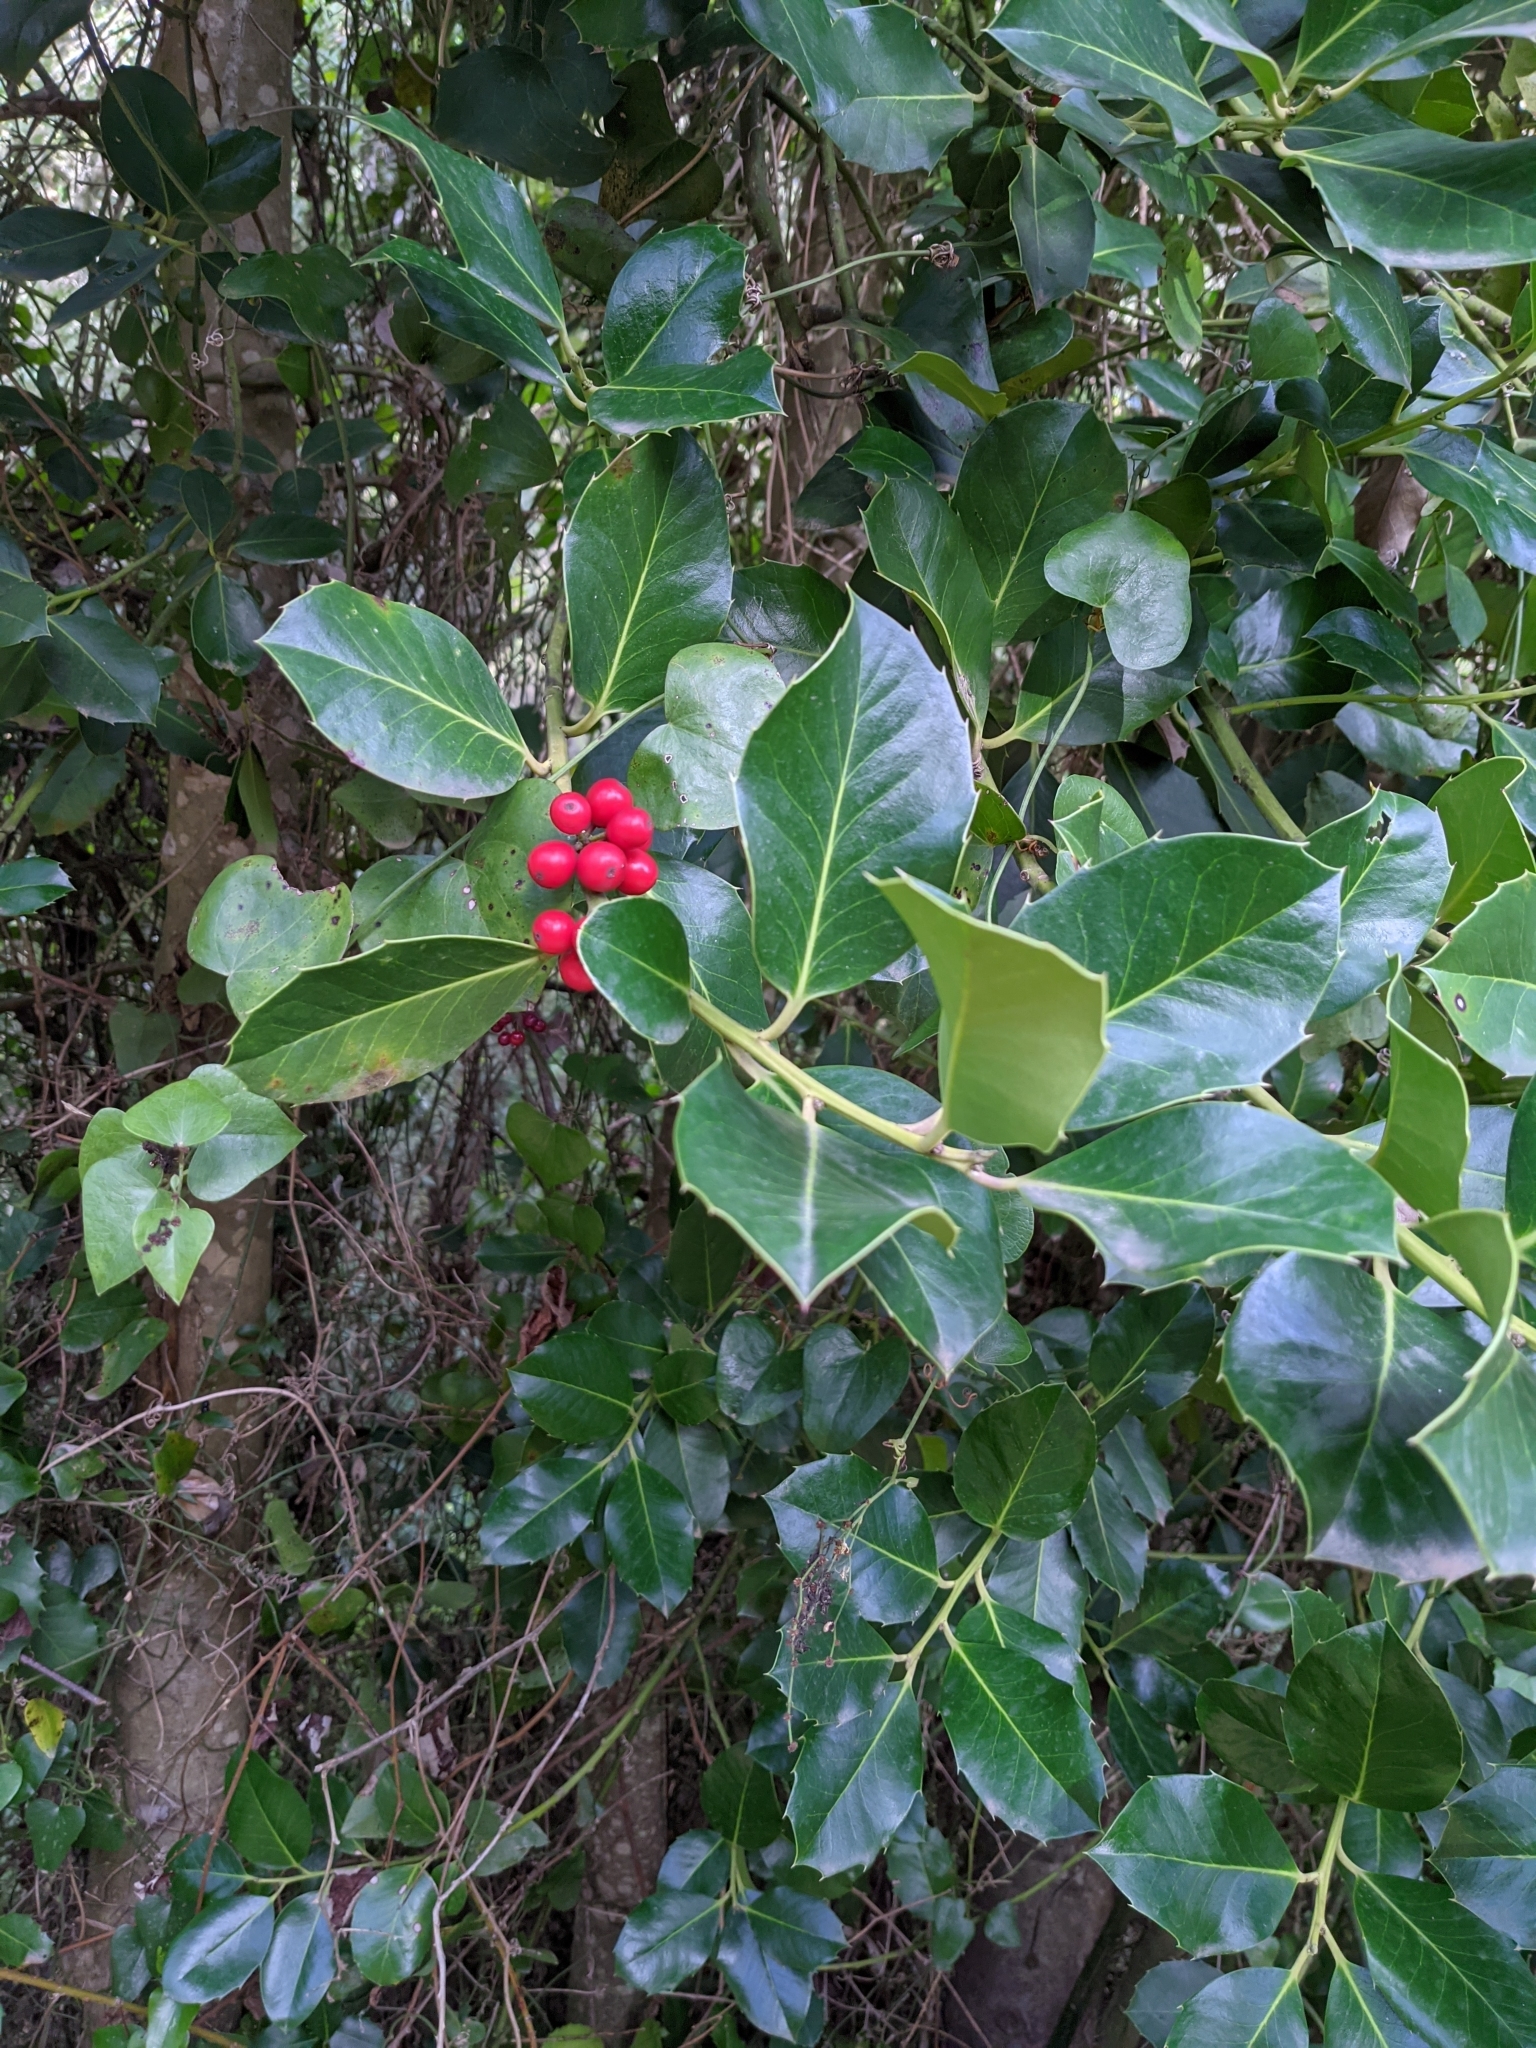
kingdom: Plantae
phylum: Tracheophyta
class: Magnoliopsida
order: Aquifoliales
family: Aquifoliaceae
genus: Ilex
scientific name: Ilex aquifolium
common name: English holly
